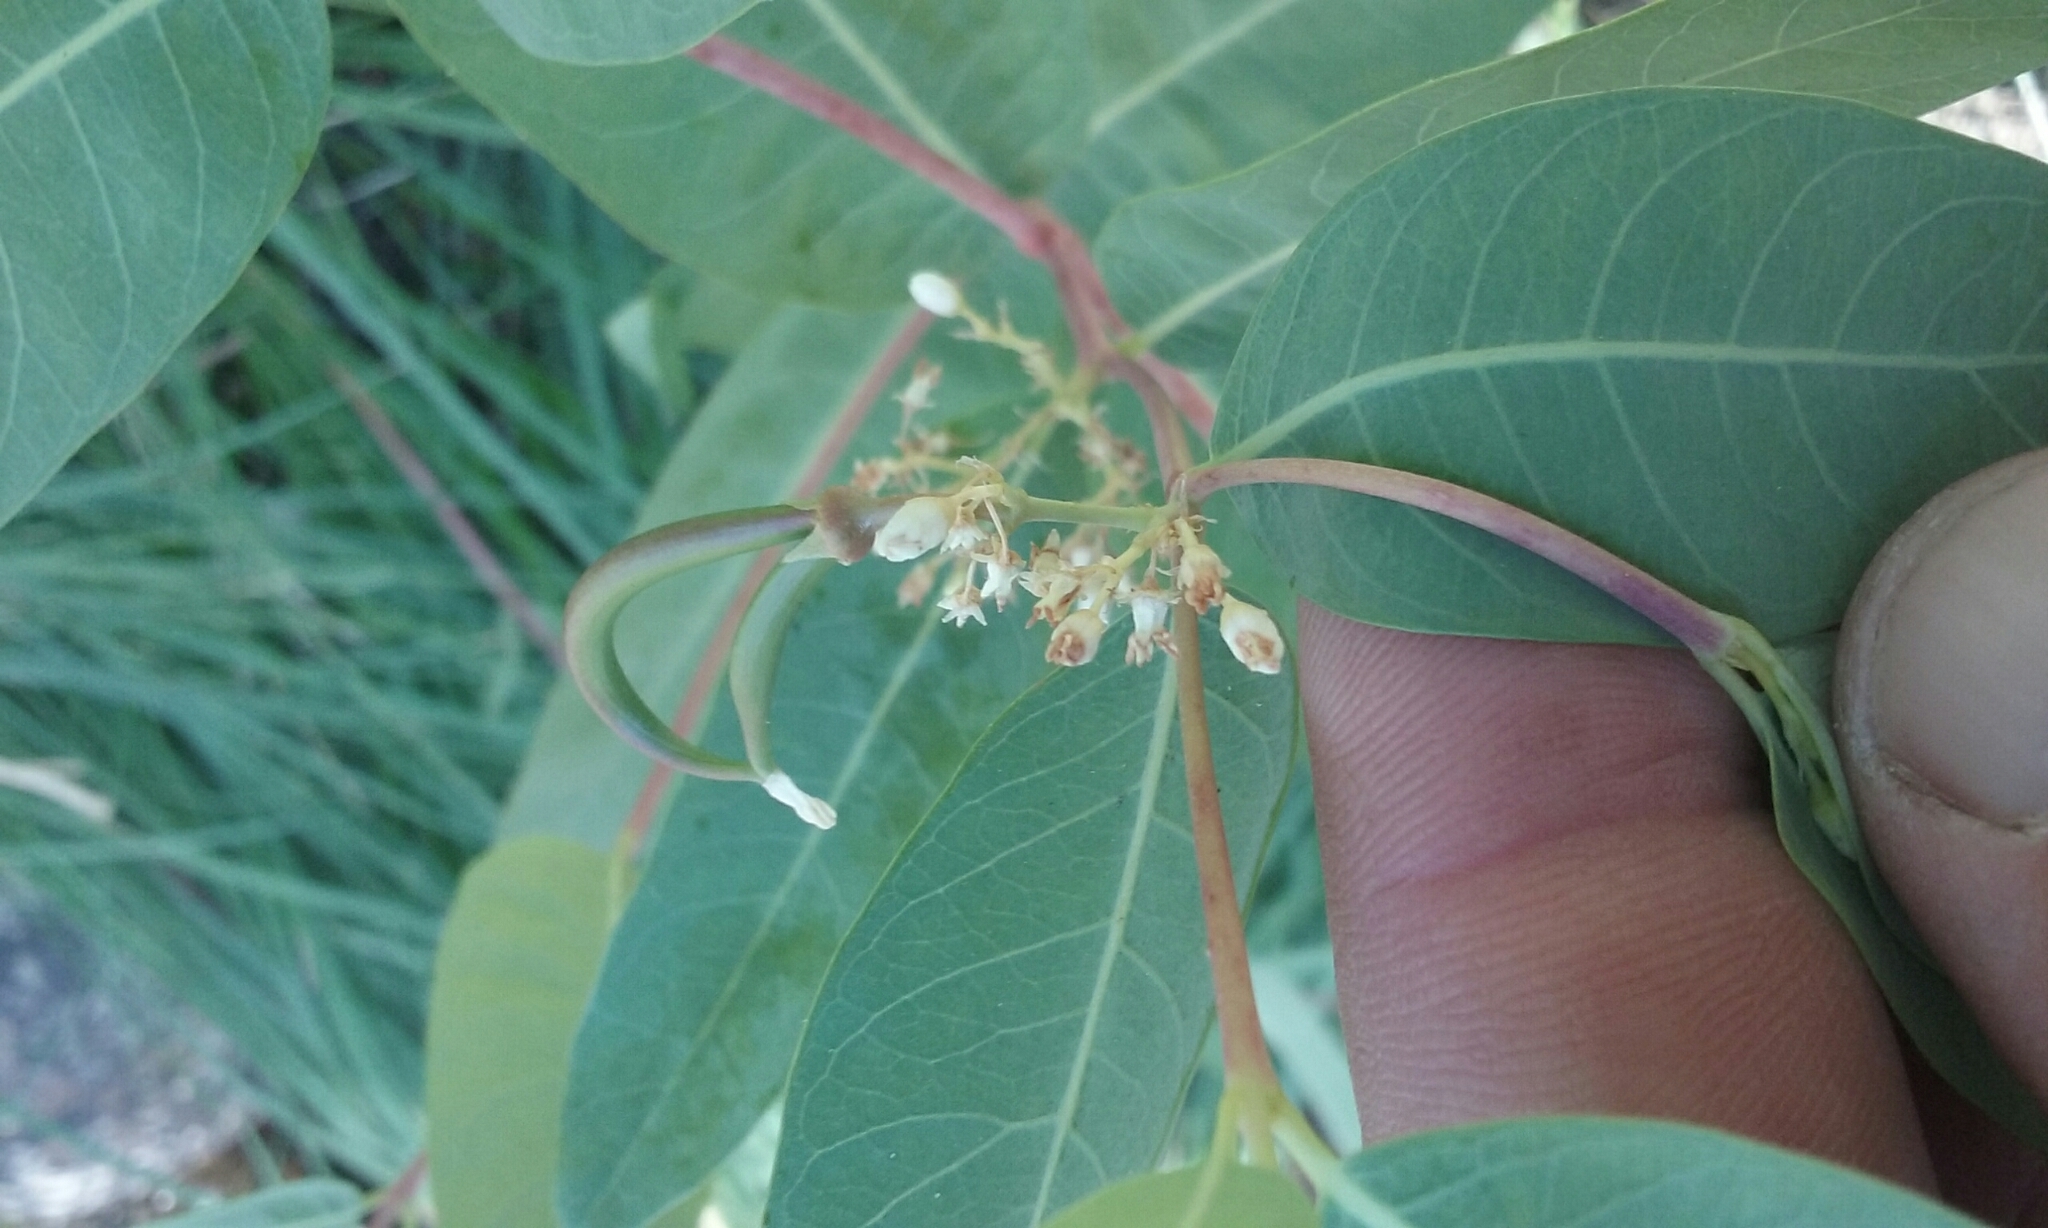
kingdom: Plantae
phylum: Tracheophyta
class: Magnoliopsida
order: Gentianales
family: Apocynaceae
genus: Apocynum
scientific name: Apocynum cannabinum
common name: Hemp dogbane
